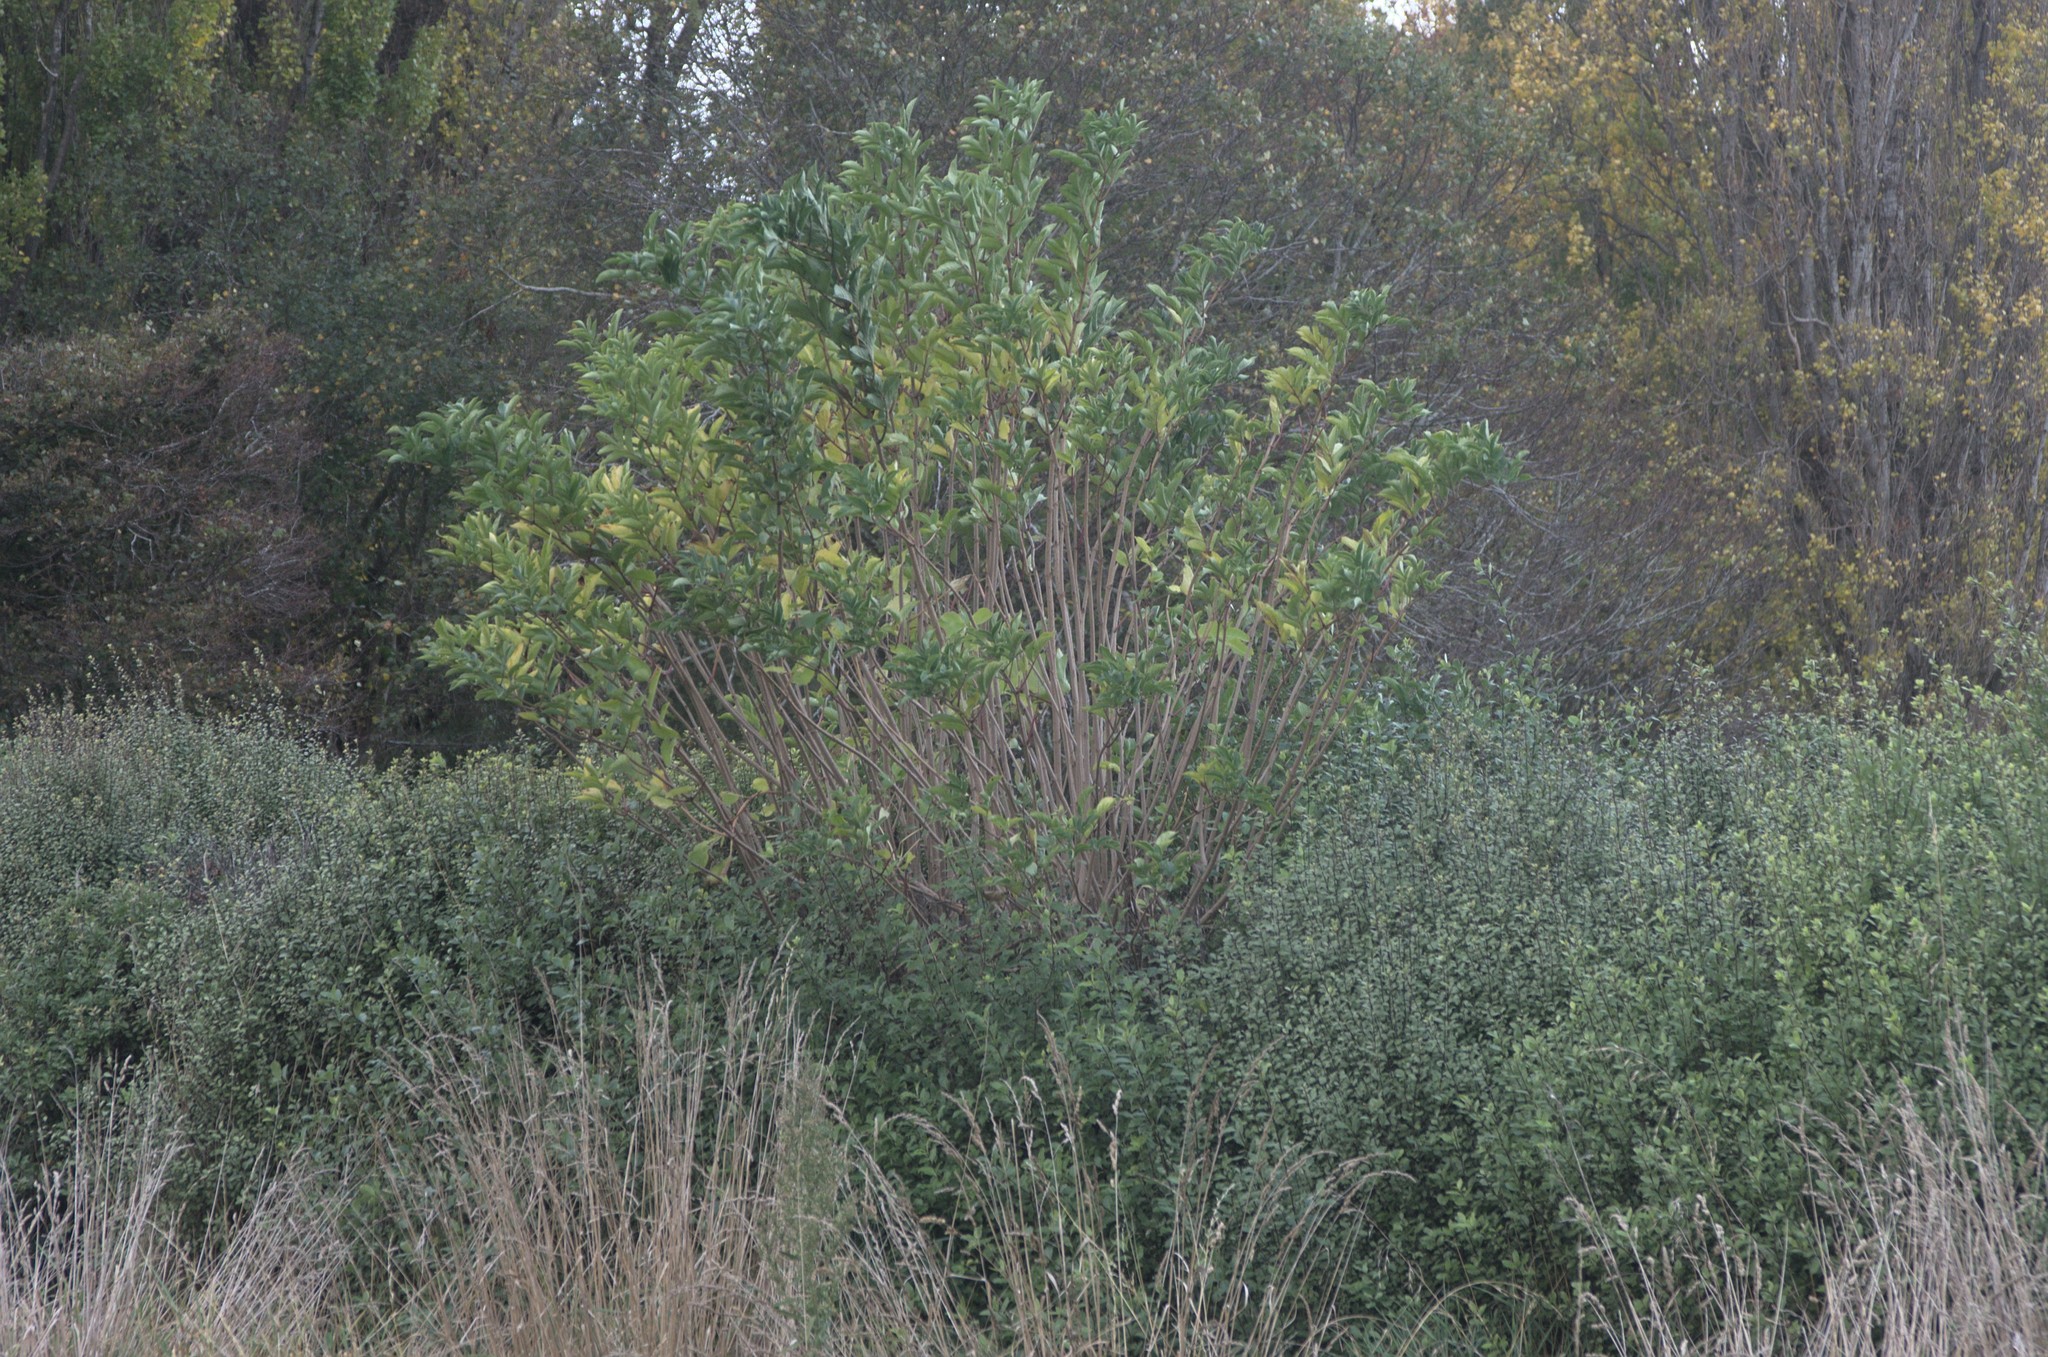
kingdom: Plantae
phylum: Tracheophyta
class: Magnoliopsida
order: Dipsacales
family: Viburnaceae
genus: Sambucus
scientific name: Sambucus nigra
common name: Elder
